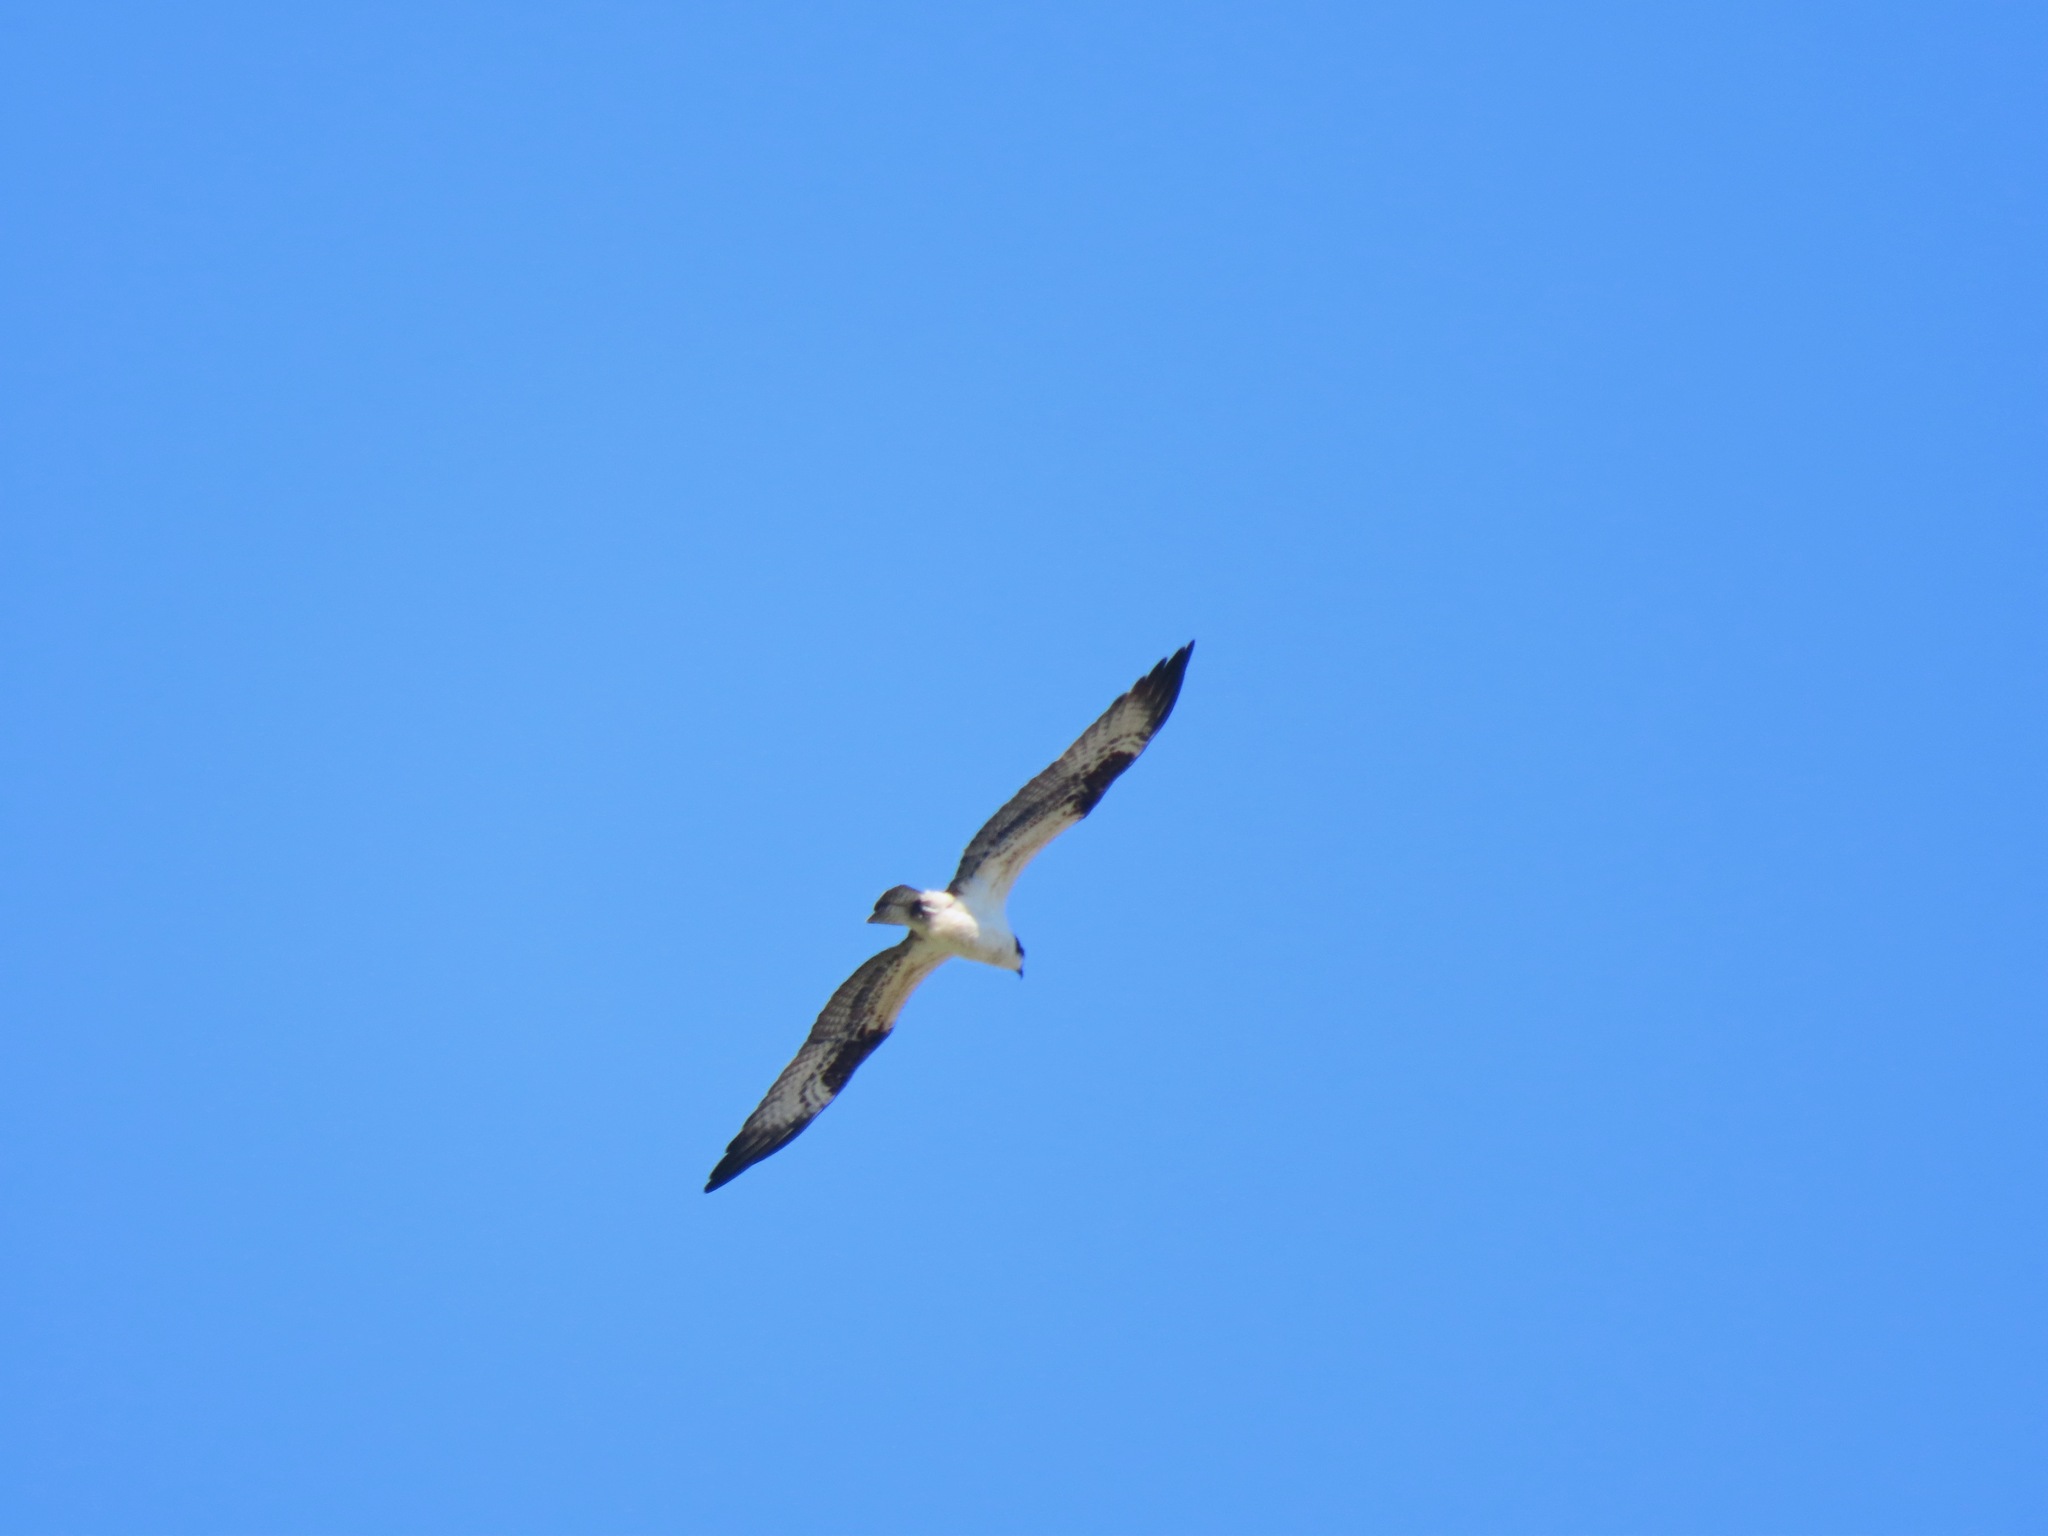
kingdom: Animalia
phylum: Chordata
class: Aves
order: Accipitriformes
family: Pandionidae
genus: Pandion
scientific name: Pandion haliaetus
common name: Osprey
